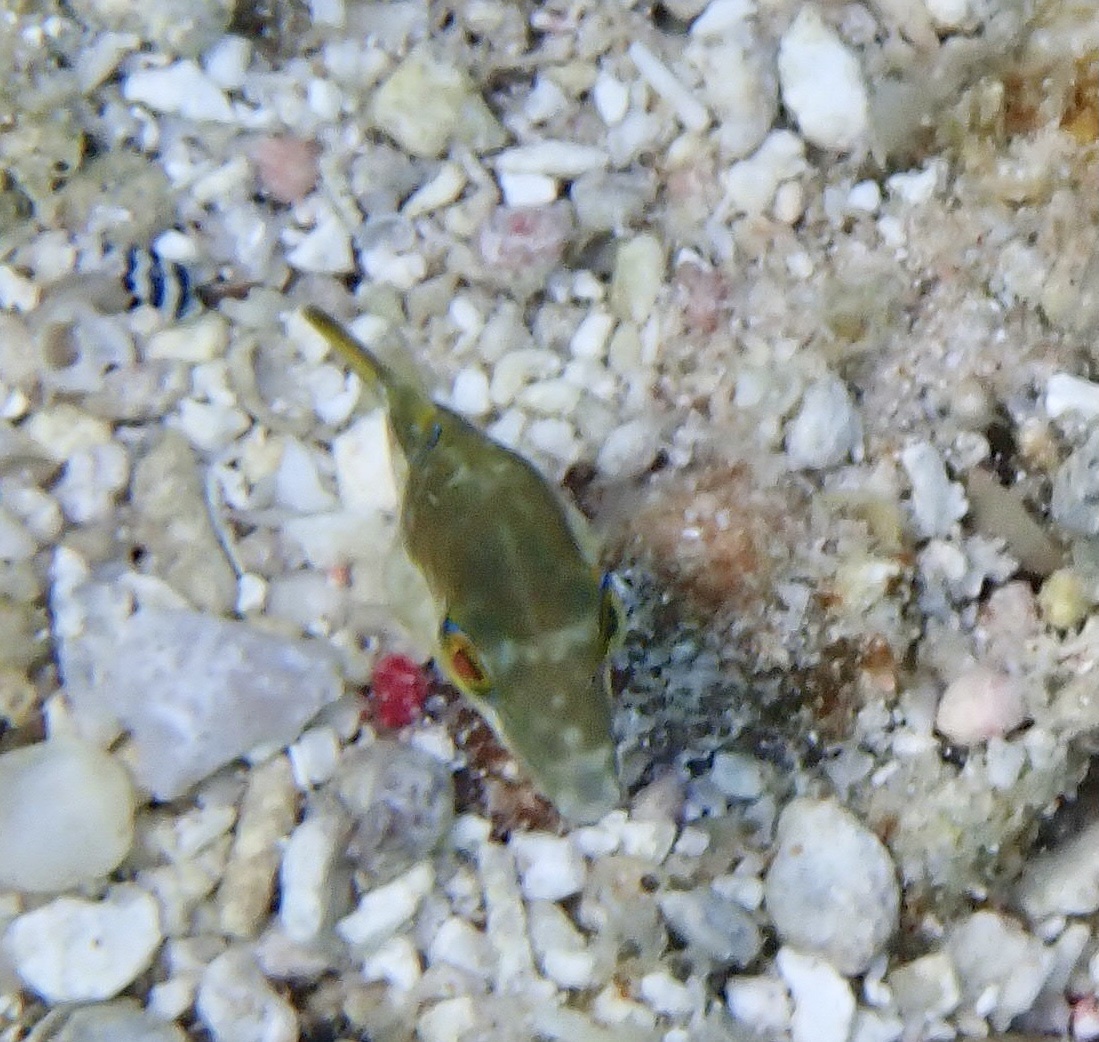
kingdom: Animalia
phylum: Chordata
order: Tetraodontiformes
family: Tetraodontidae
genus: Canthigaster
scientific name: Canthigaster rostrata
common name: Caribbean sharpnose-puffer
